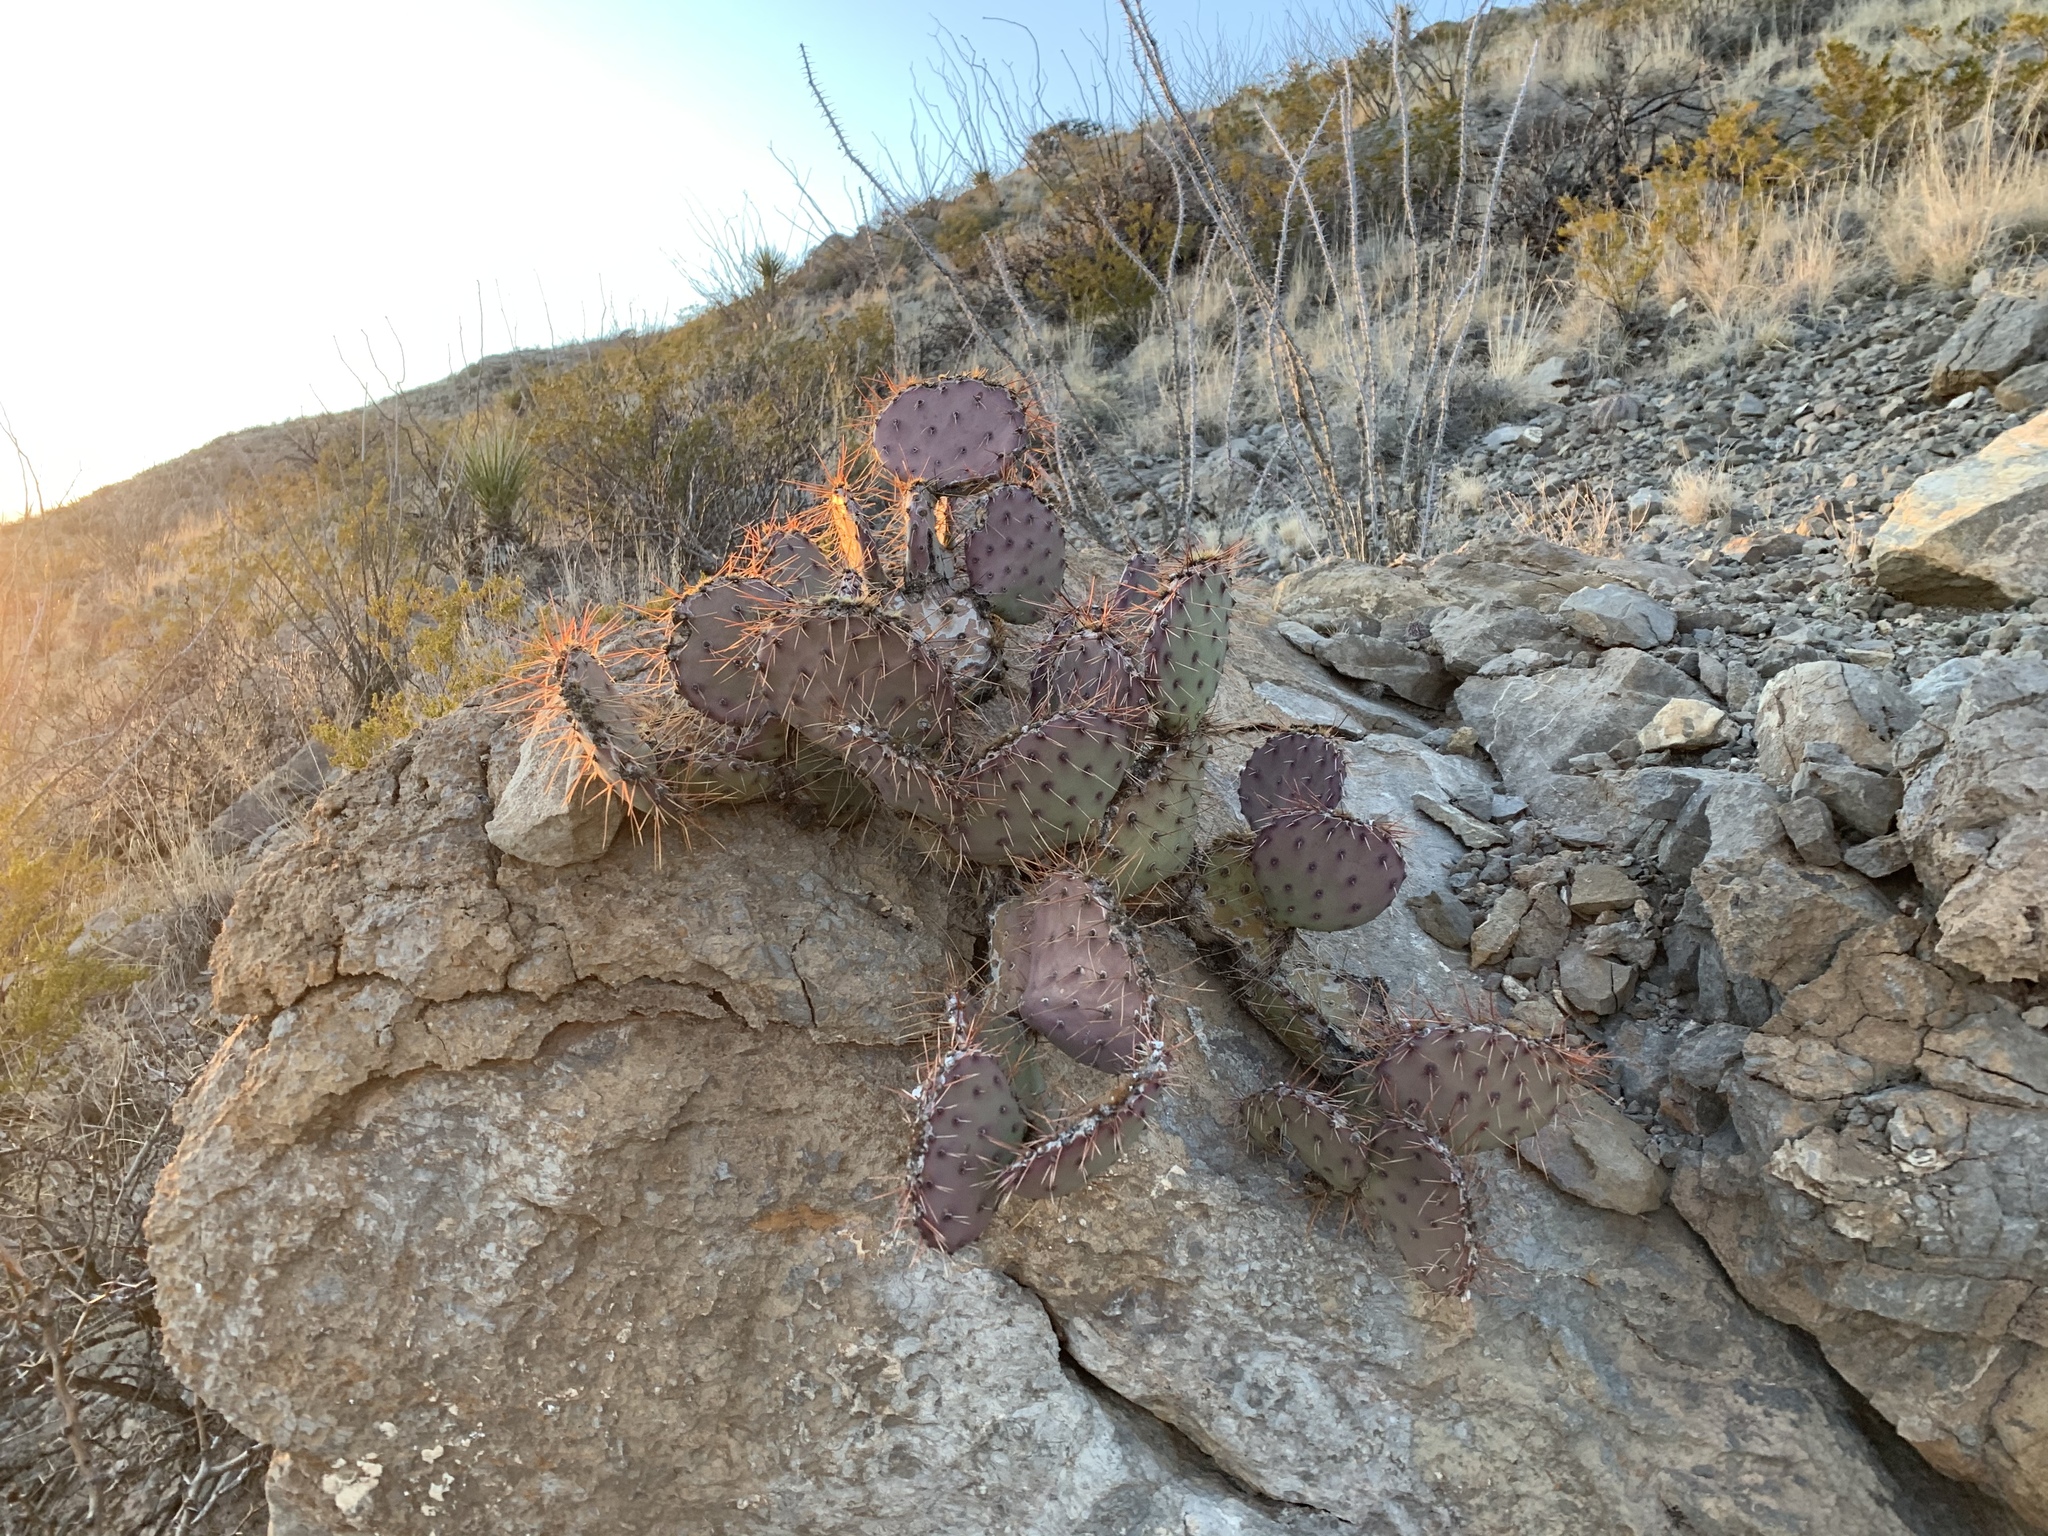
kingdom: Plantae
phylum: Tracheophyta
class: Magnoliopsida
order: Caryophyllales
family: Cactaceae
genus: Opuntia
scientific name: Opuntia macrocentra
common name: Purple prickly-pear
